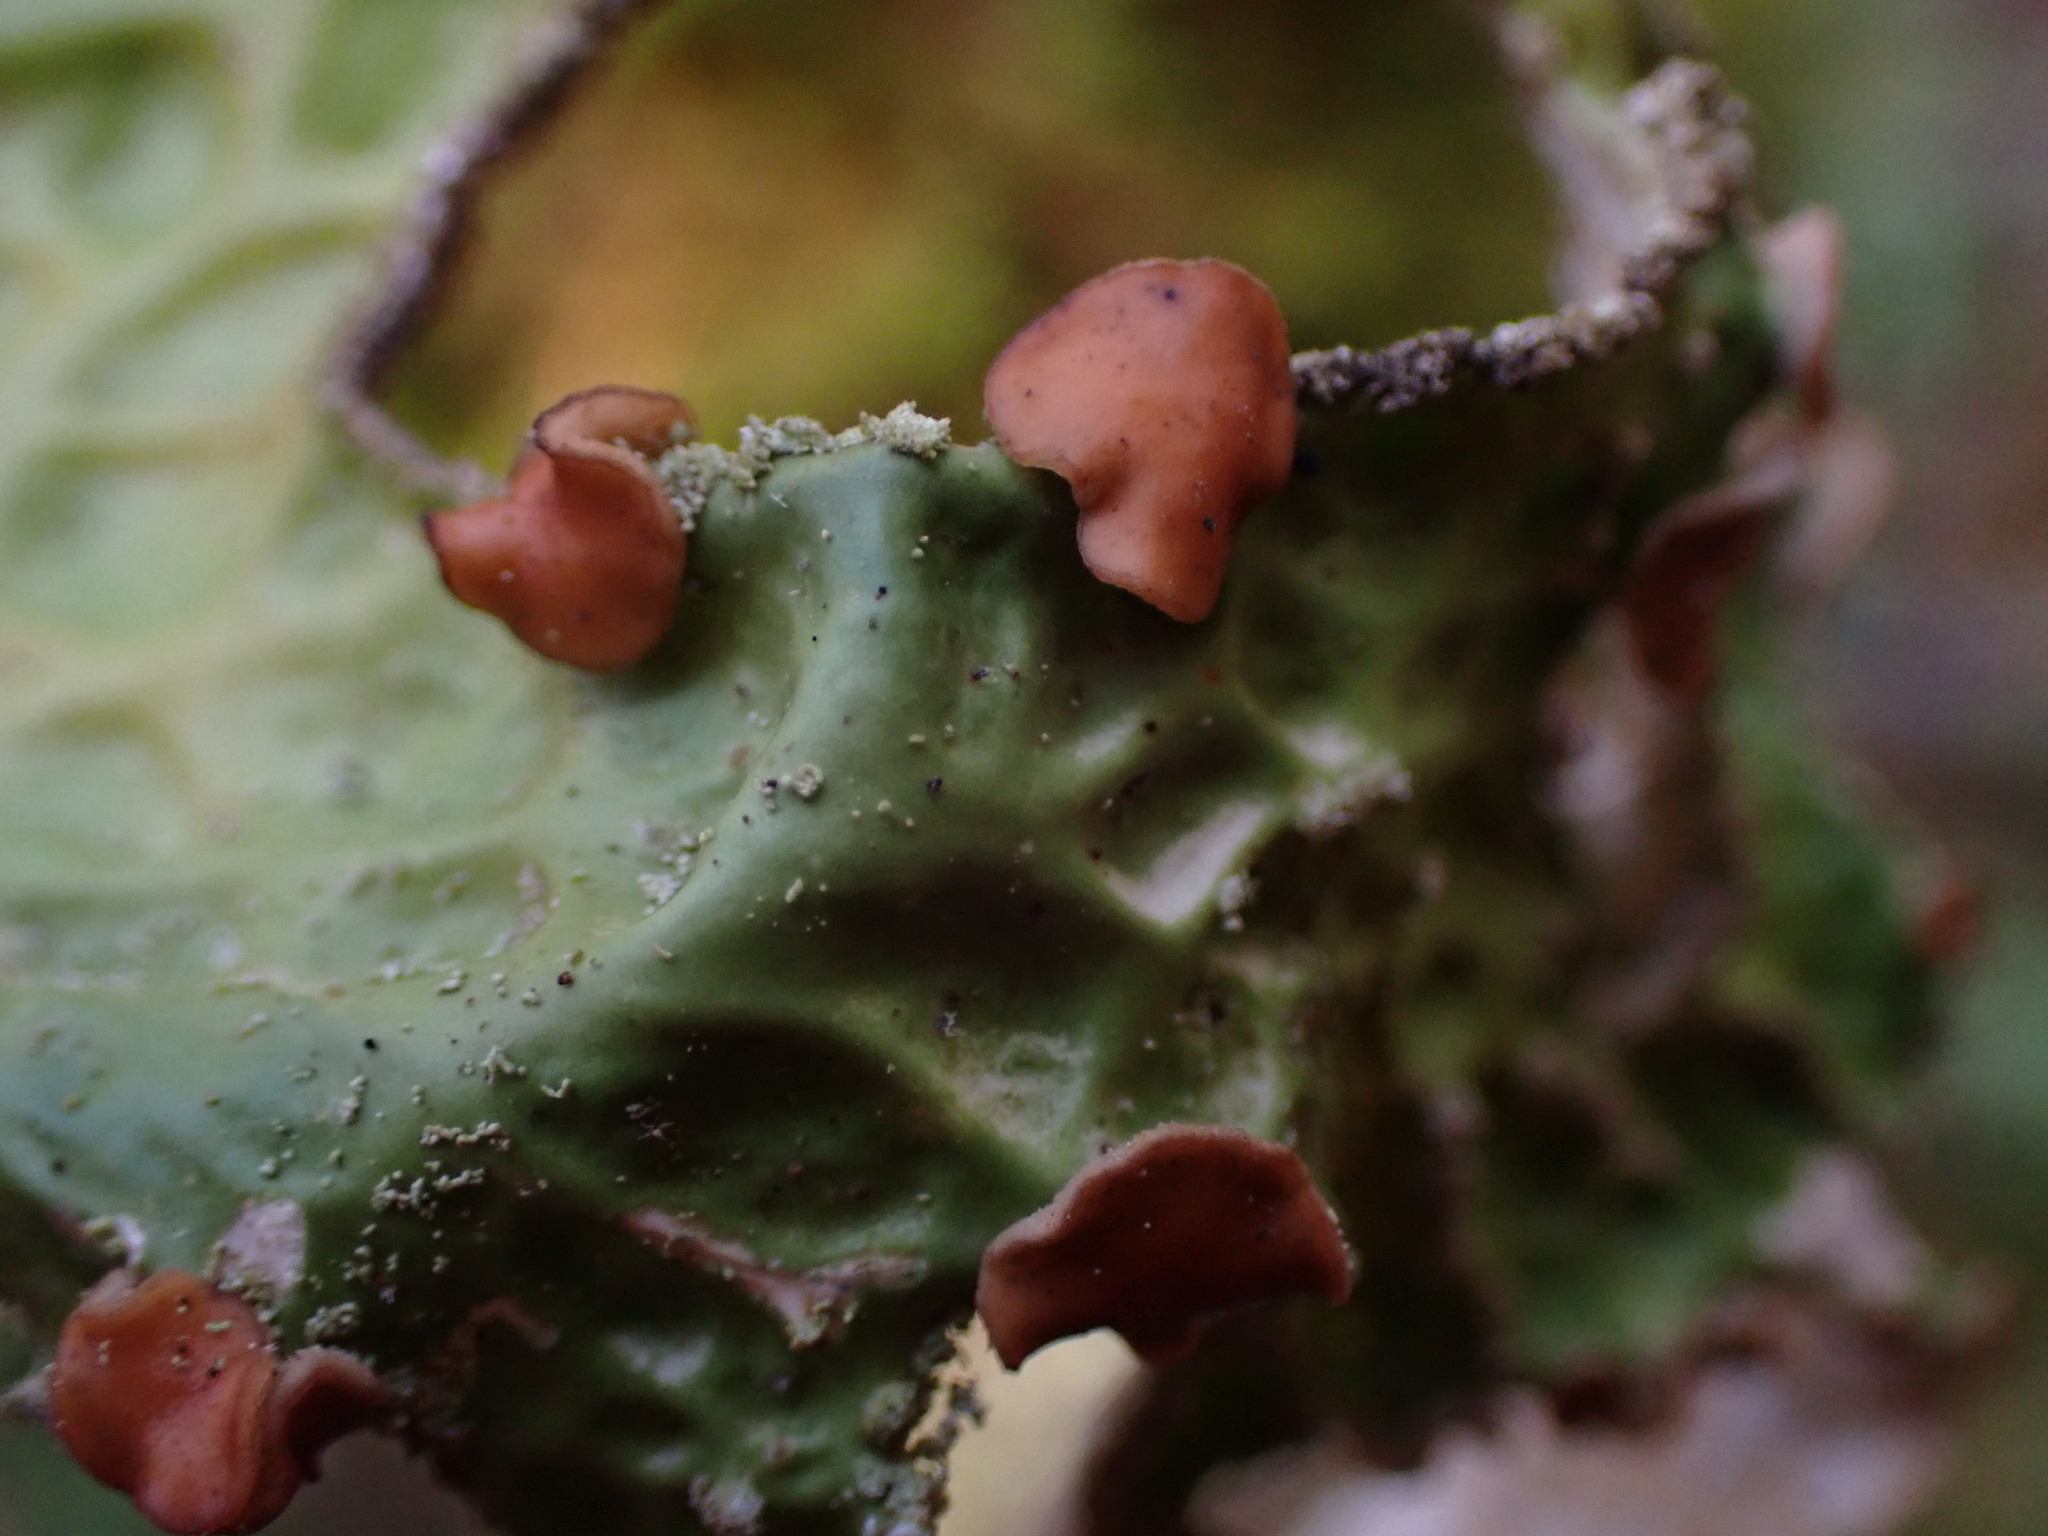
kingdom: Fungi
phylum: Ascomycota
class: Lecanoromycetes
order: Peltigerales
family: Lobariaceae
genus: Lobaria
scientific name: Lobaria pulmonaria
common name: Lungwort
